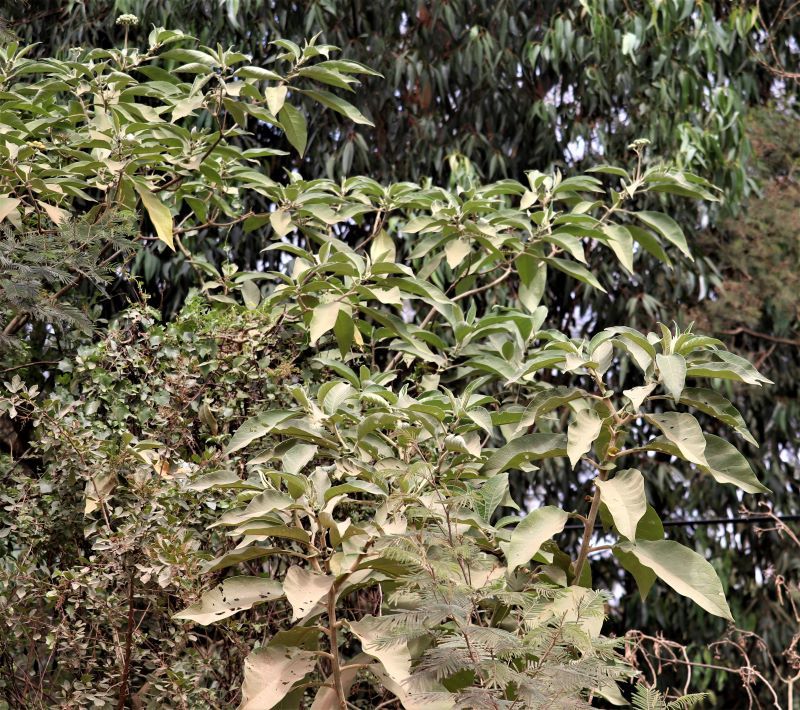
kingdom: Plantae
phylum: Tracheophyta
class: Magnoliopsida
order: Solanales
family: Solanaceae
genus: Solanum
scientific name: Solanum mauritianum
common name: Earleaf nightshade
